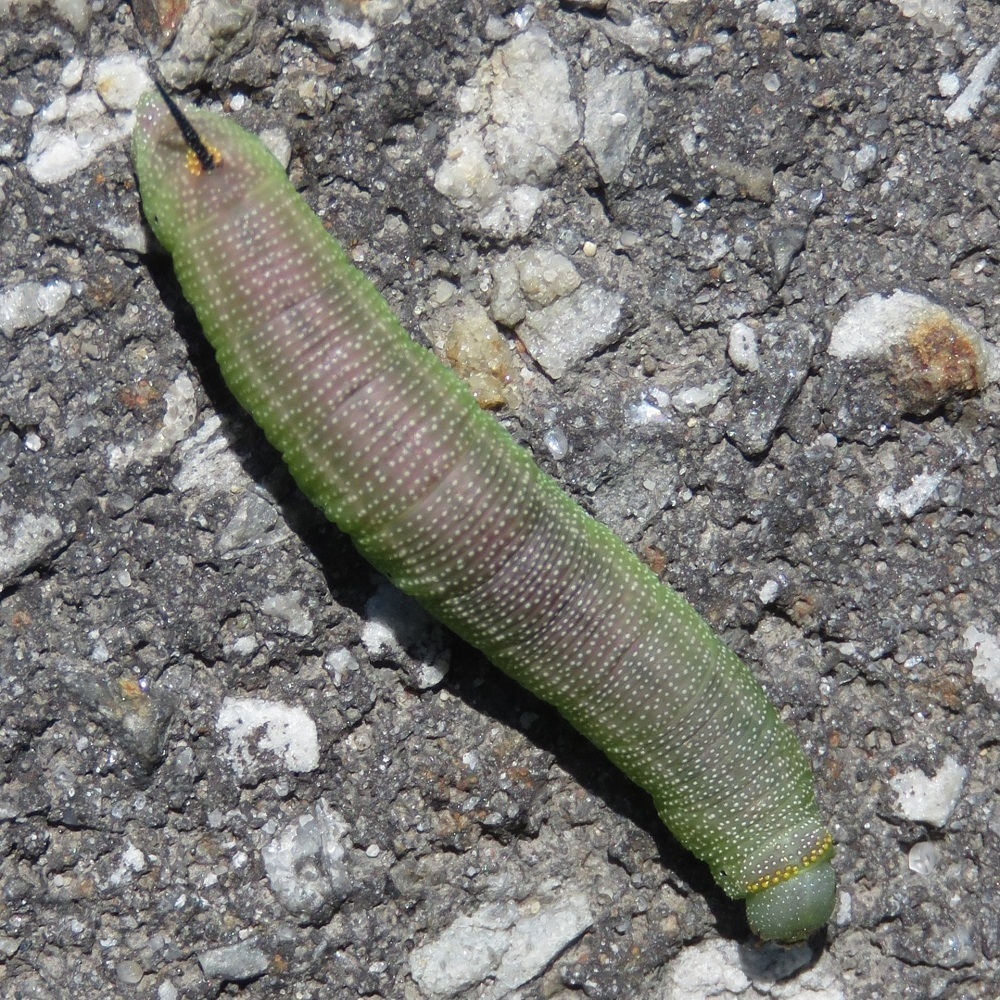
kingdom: Animalia
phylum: Arthropoda
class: Insecta
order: Lepidoptera
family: Sphingidae
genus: Hemaris
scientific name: Hemaris diffinis
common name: Bumblebee moth
